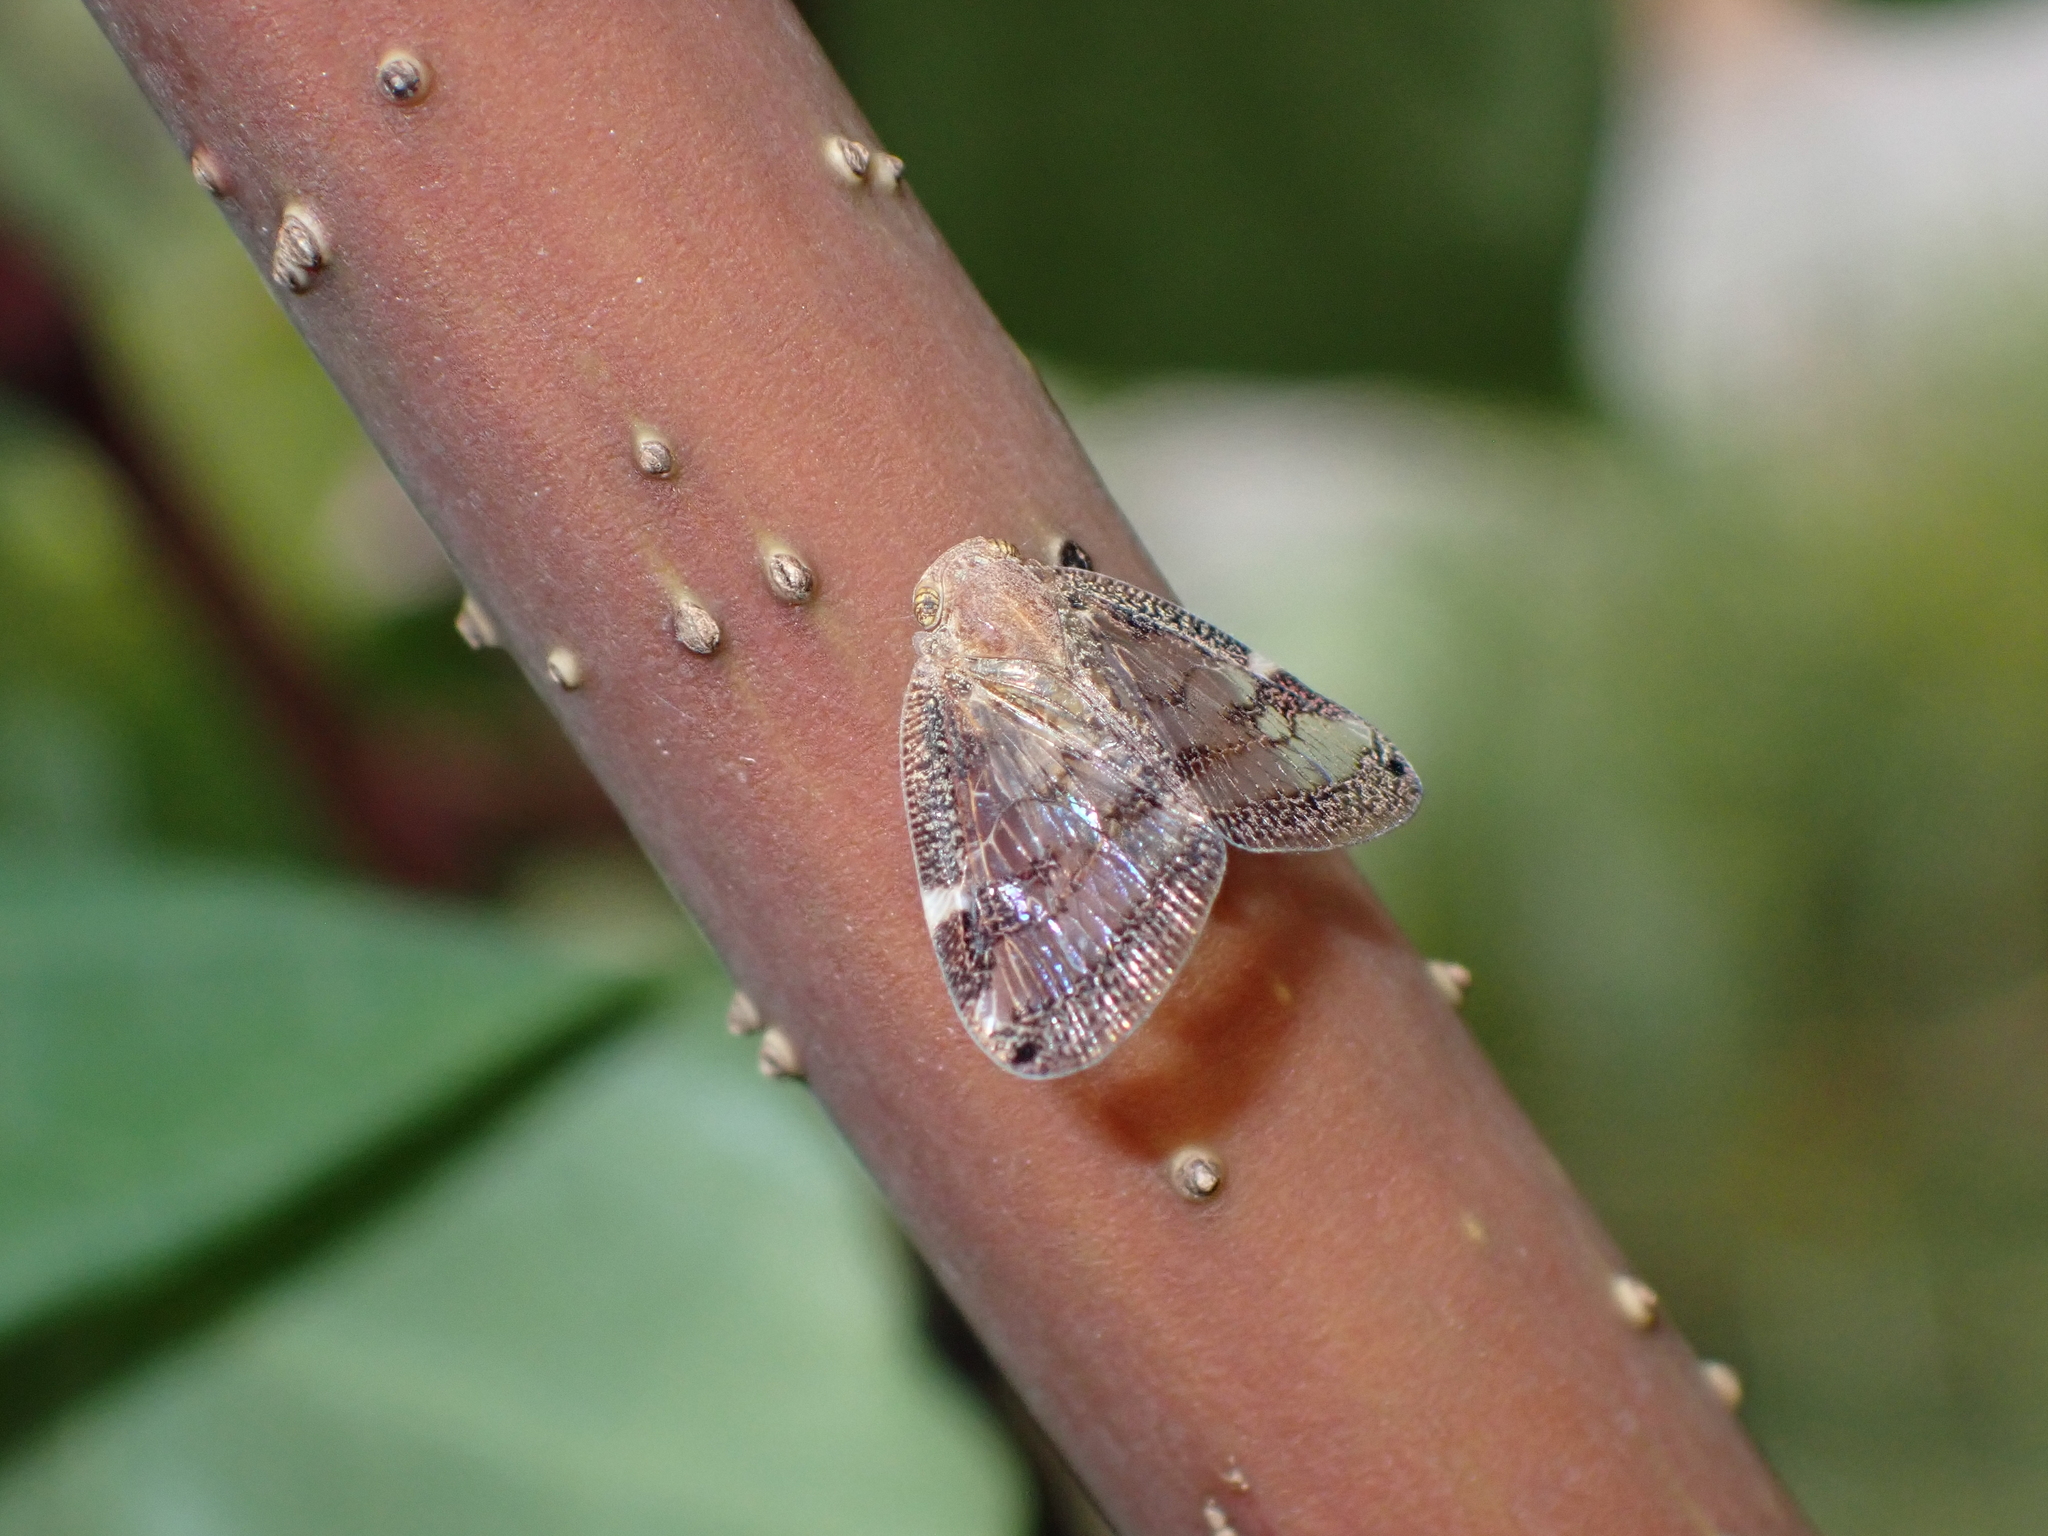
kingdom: Animalia
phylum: Arthropoda
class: Insecta
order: Hemiptera
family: Ricaniidae
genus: Scolypopa
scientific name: Scolypopa australis
